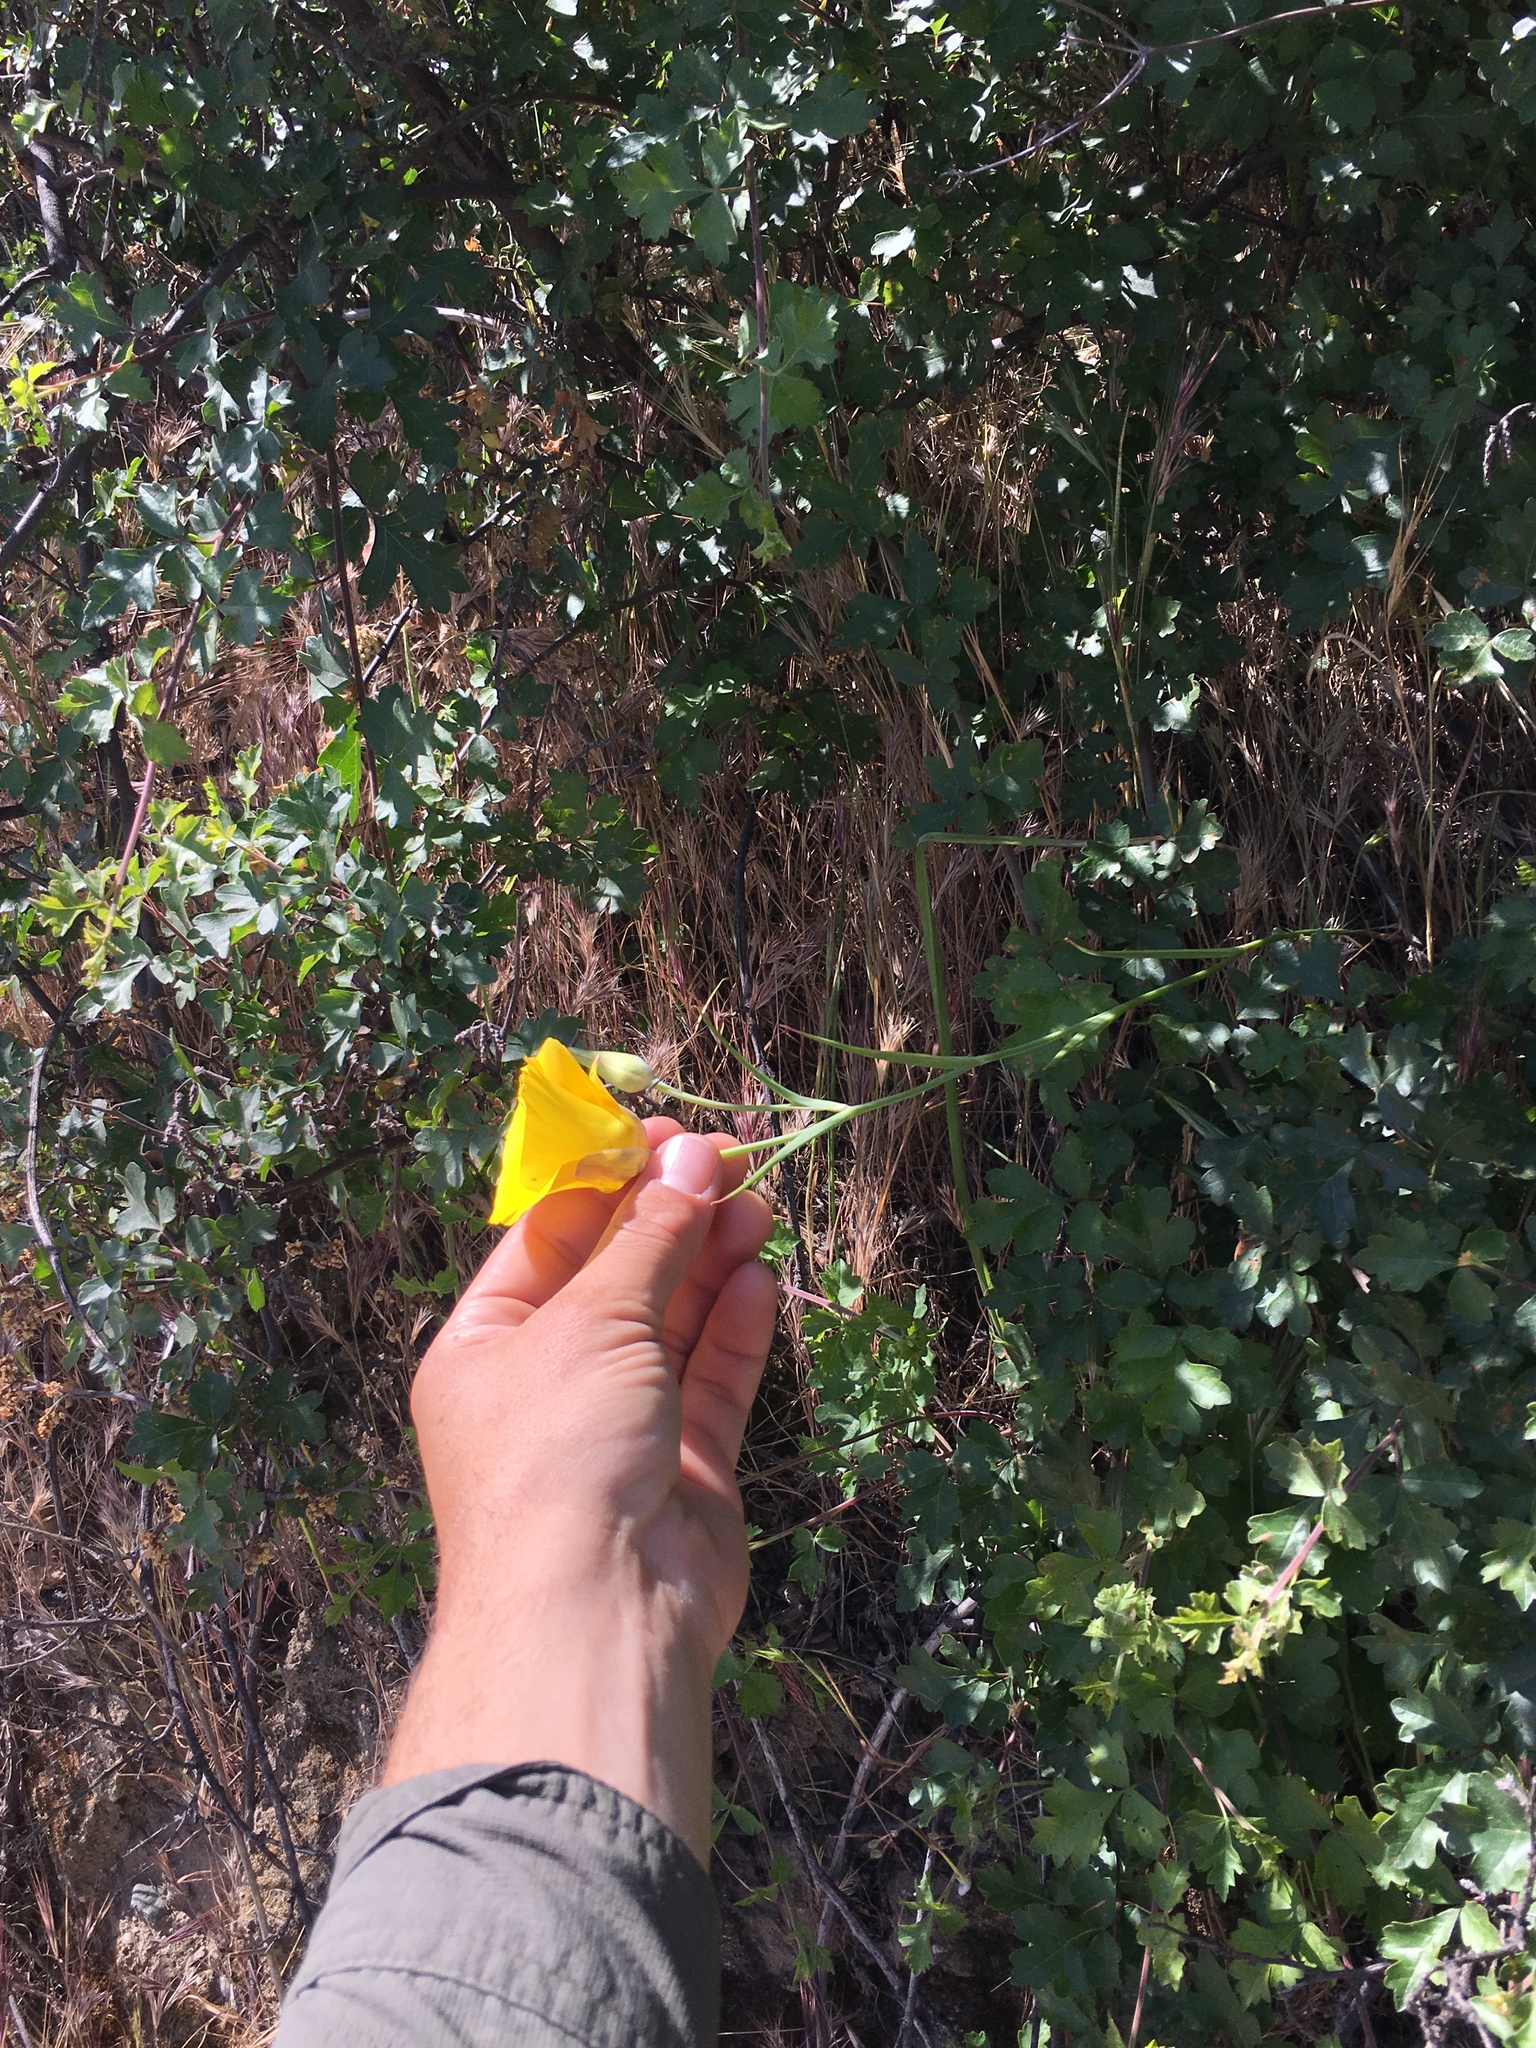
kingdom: Plantae
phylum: Tracheophyta
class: Liliopsida
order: Liliales
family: Liliaceae
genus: Calochortus
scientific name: Calochortus clavatus
